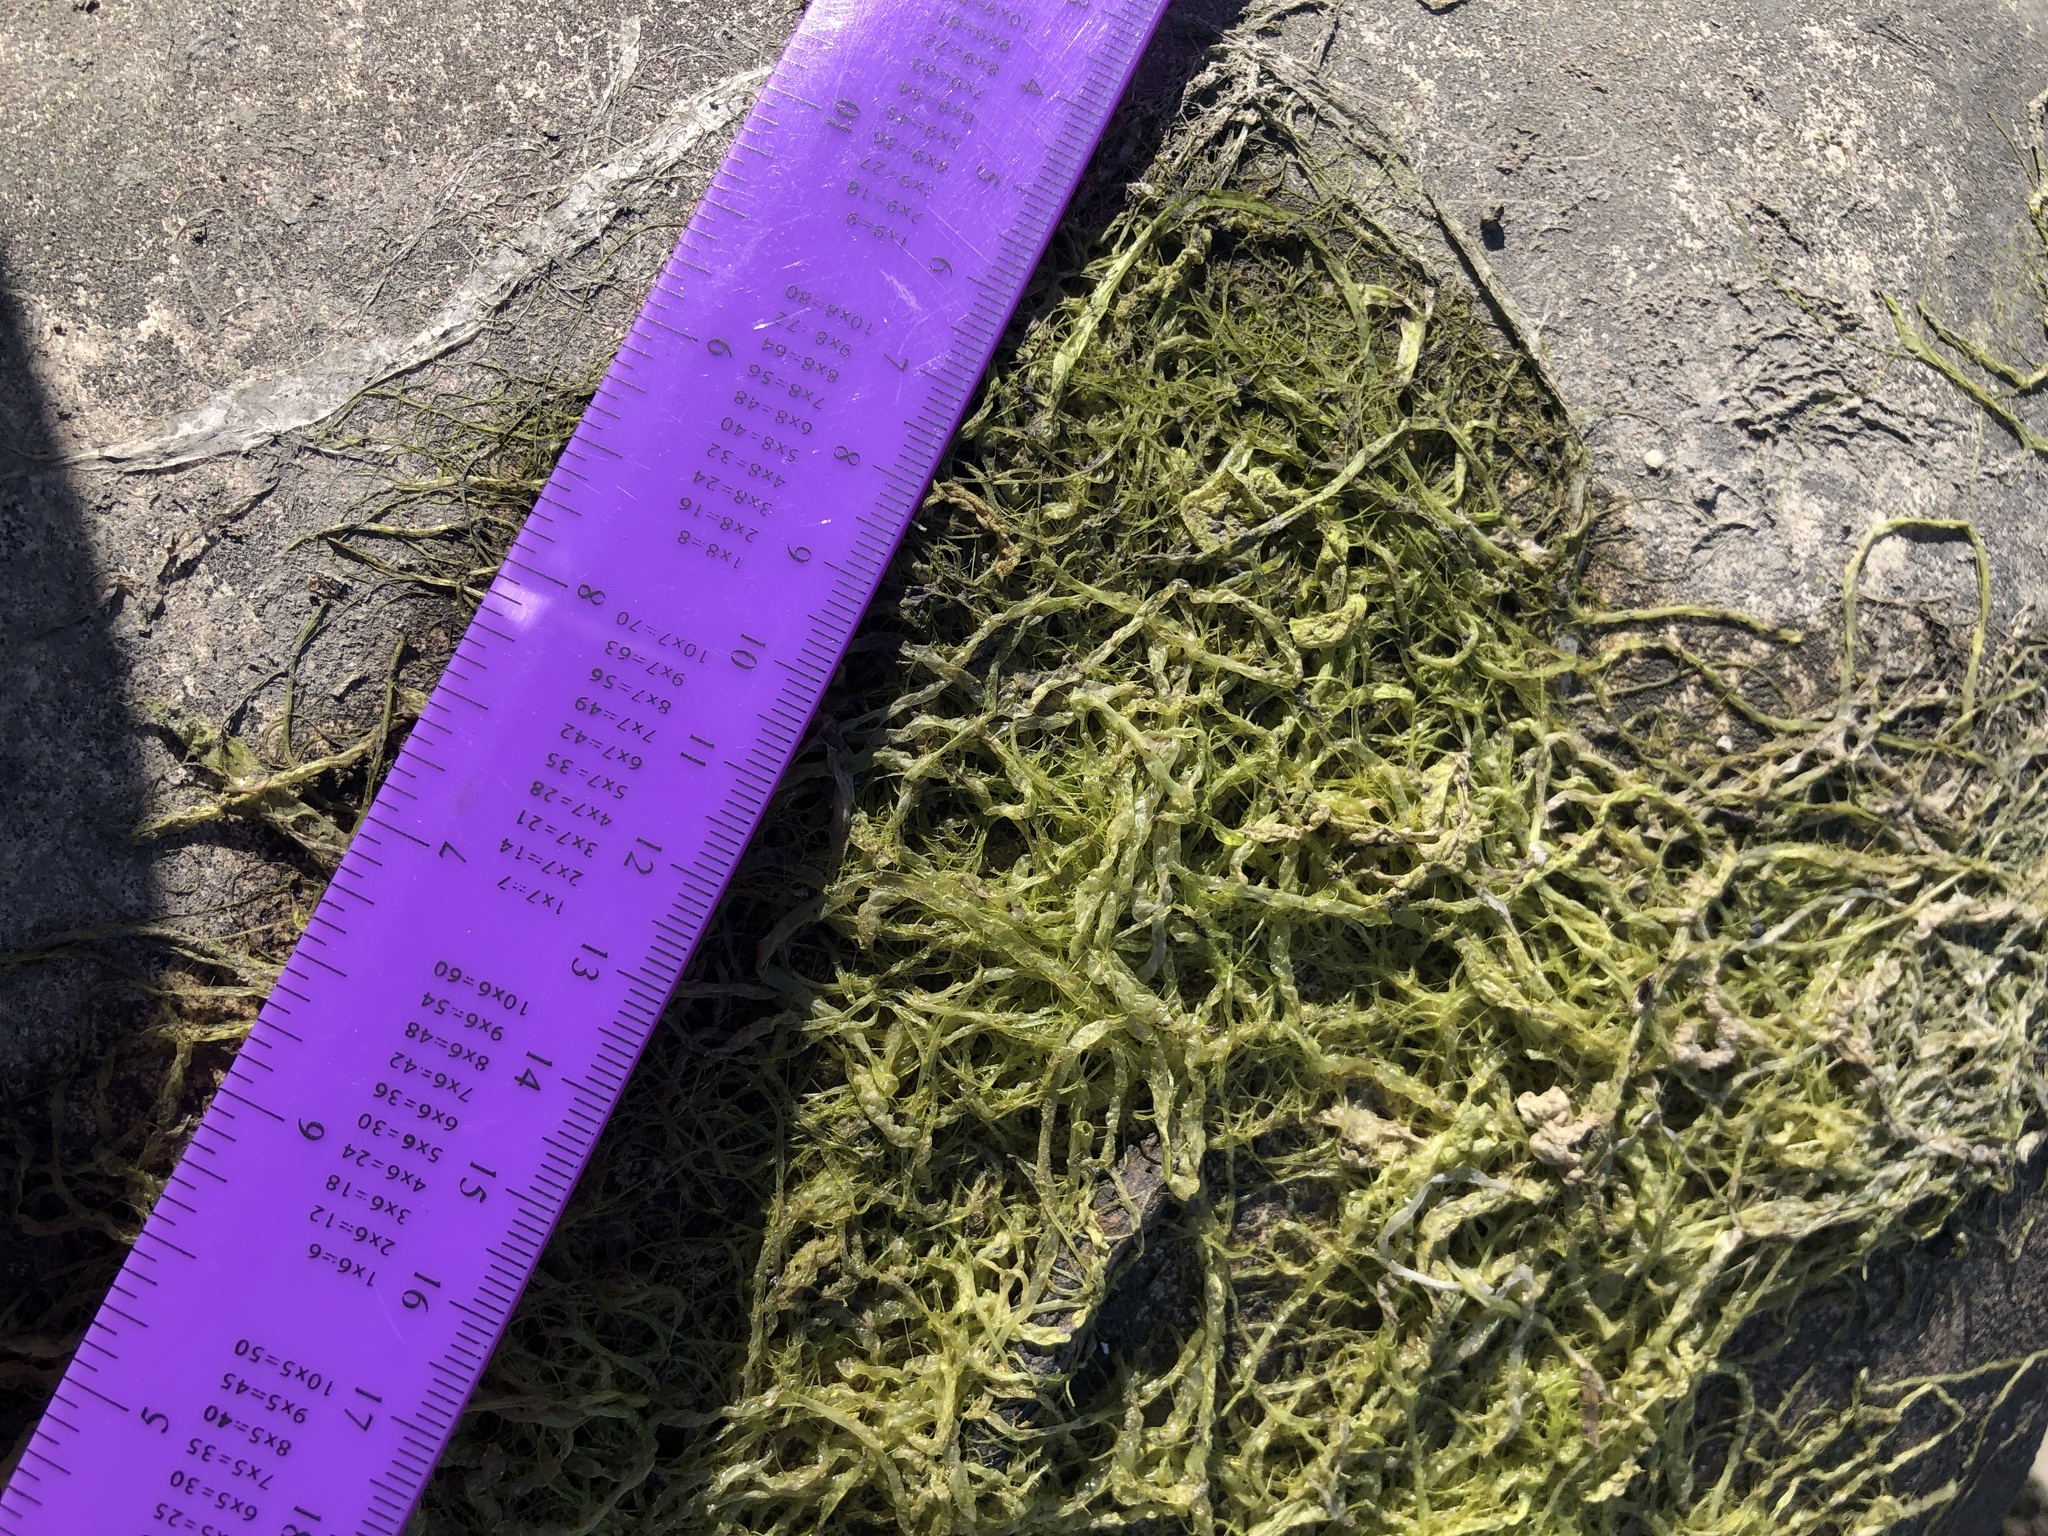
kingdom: Plantae
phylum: Chlorophyta
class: Ulvophyceae
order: Ulvales
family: Ulvaceae
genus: Ulva
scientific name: Ulva intestinalis
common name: Gut weed
